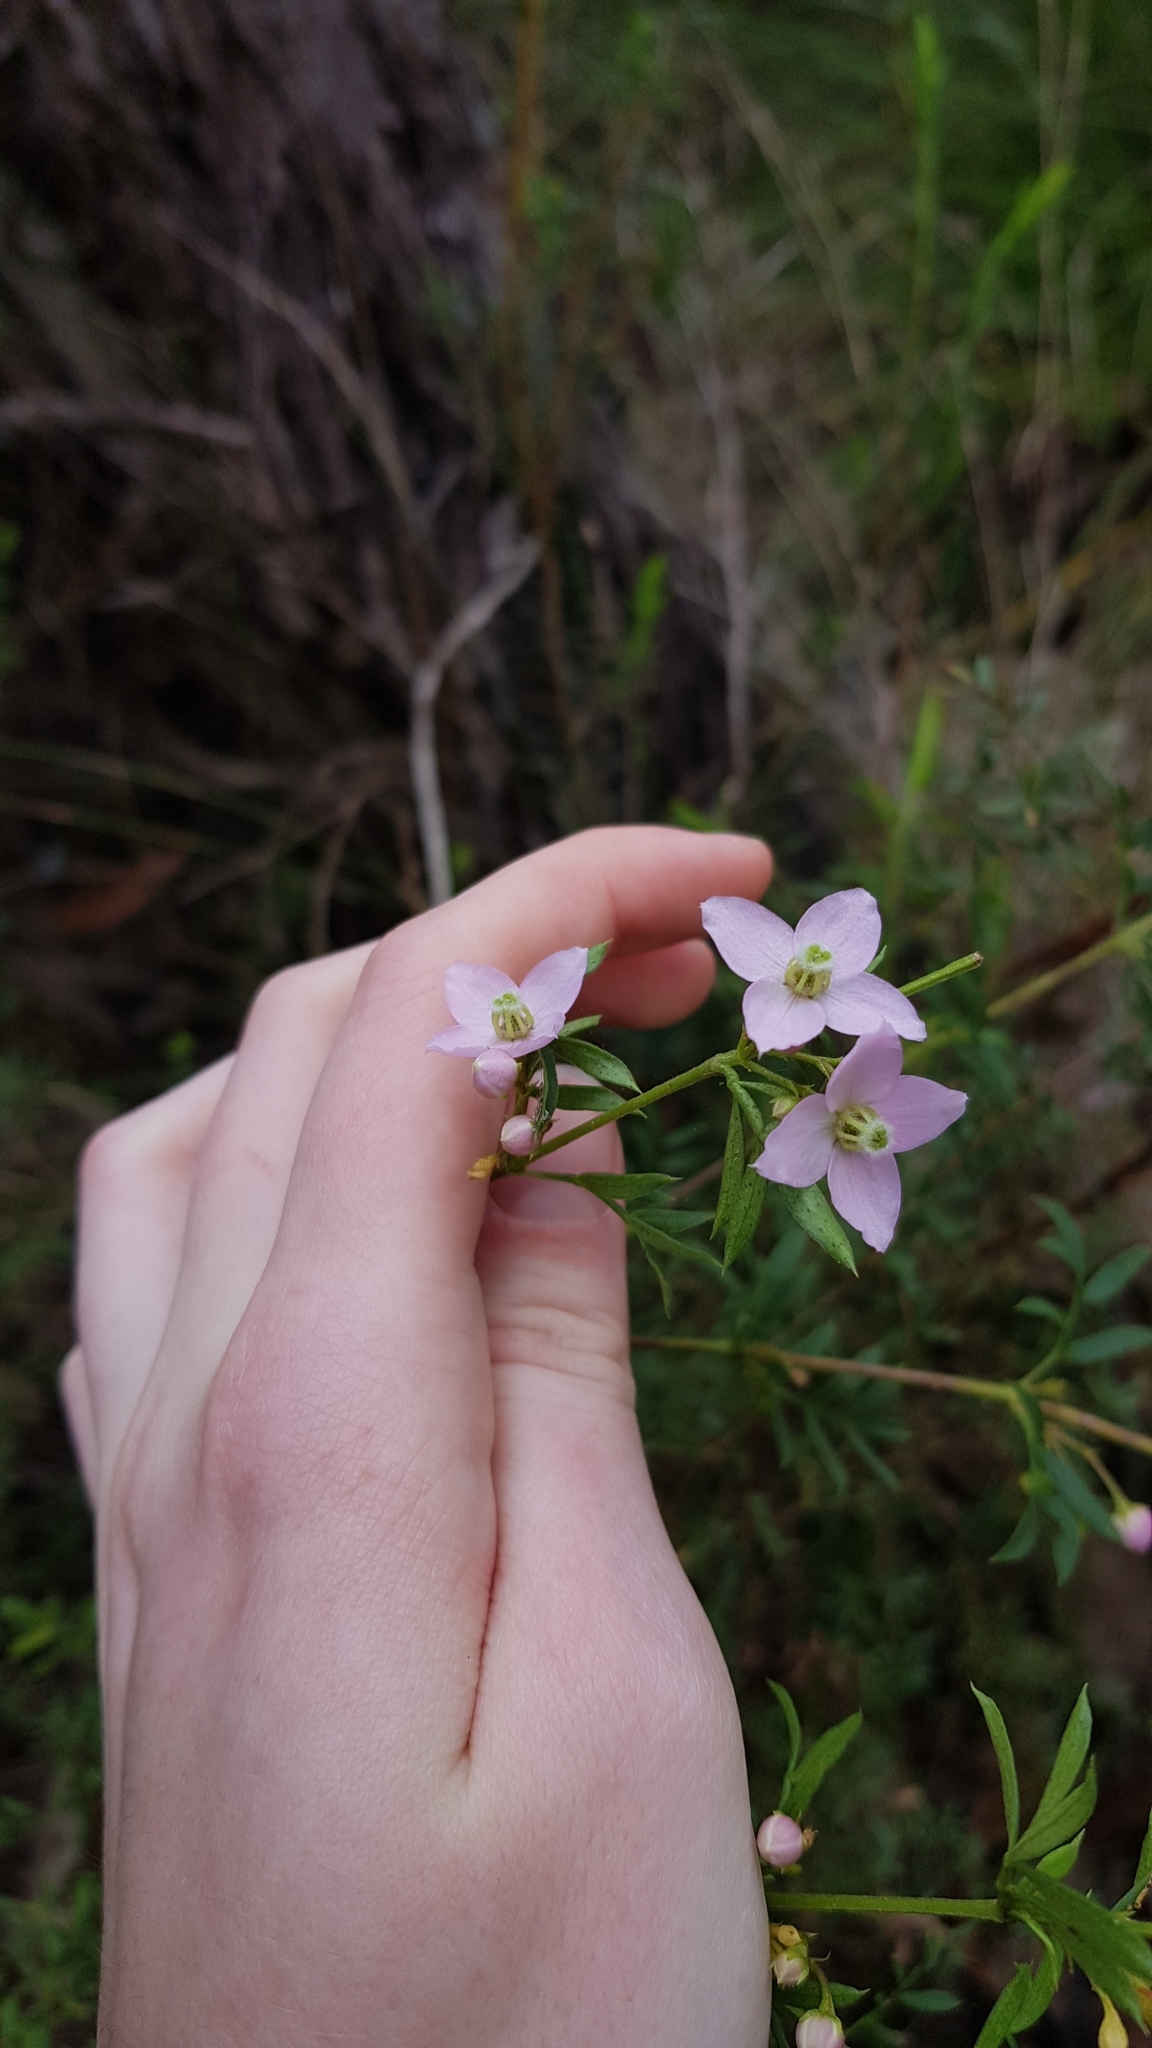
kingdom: Plantae
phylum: Tracheophyta
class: Magnoliopsida
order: Sapindales
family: Rutaceae
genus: Boronia
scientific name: Boronia floribunda
